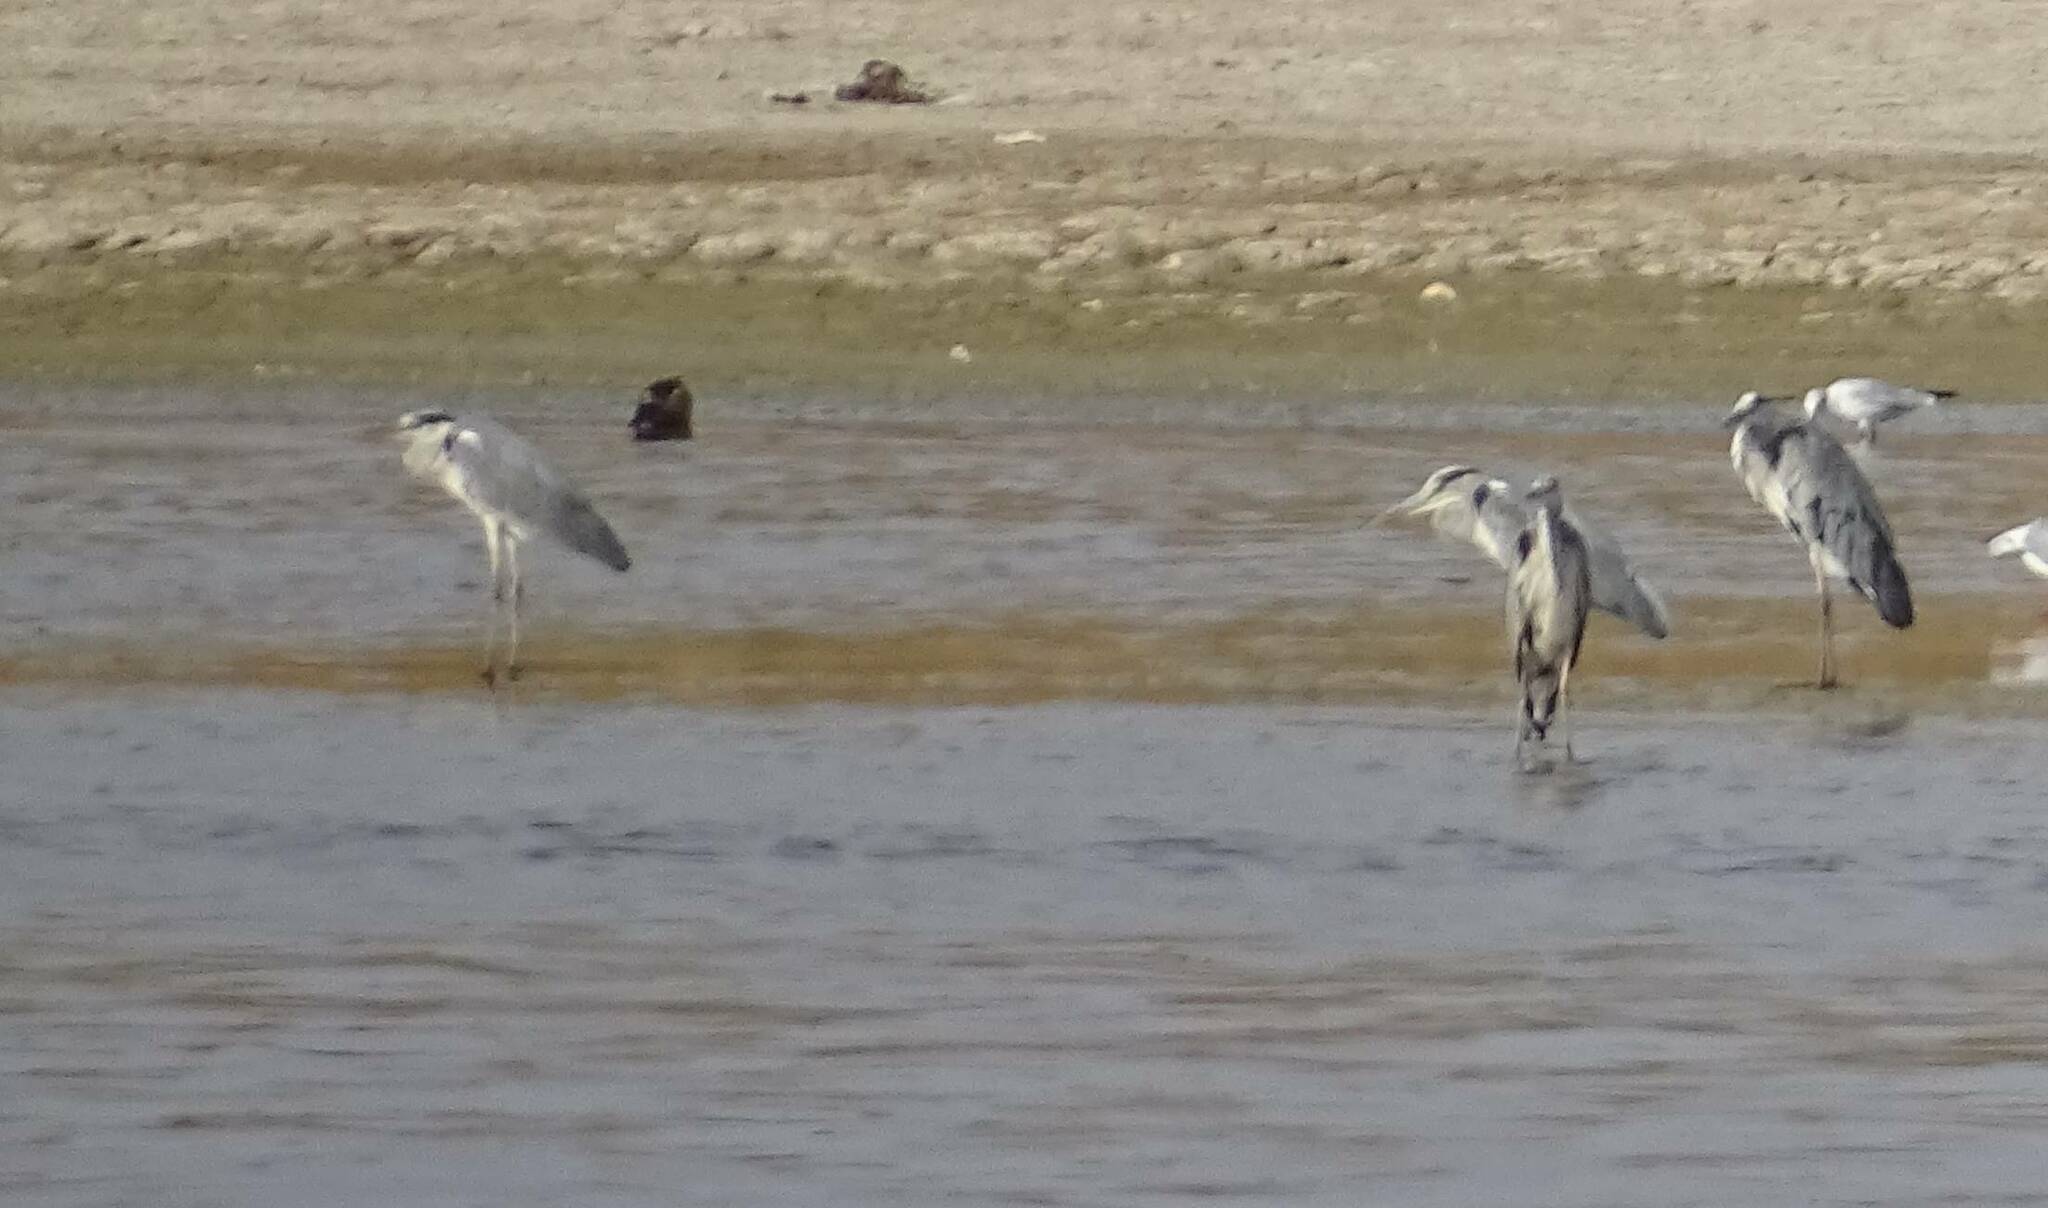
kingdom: Animalia
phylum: Chordata
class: Aves
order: Pelecaniformes
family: Ardeidae
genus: Ardea
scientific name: Ardea cinerea
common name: Grey heron
